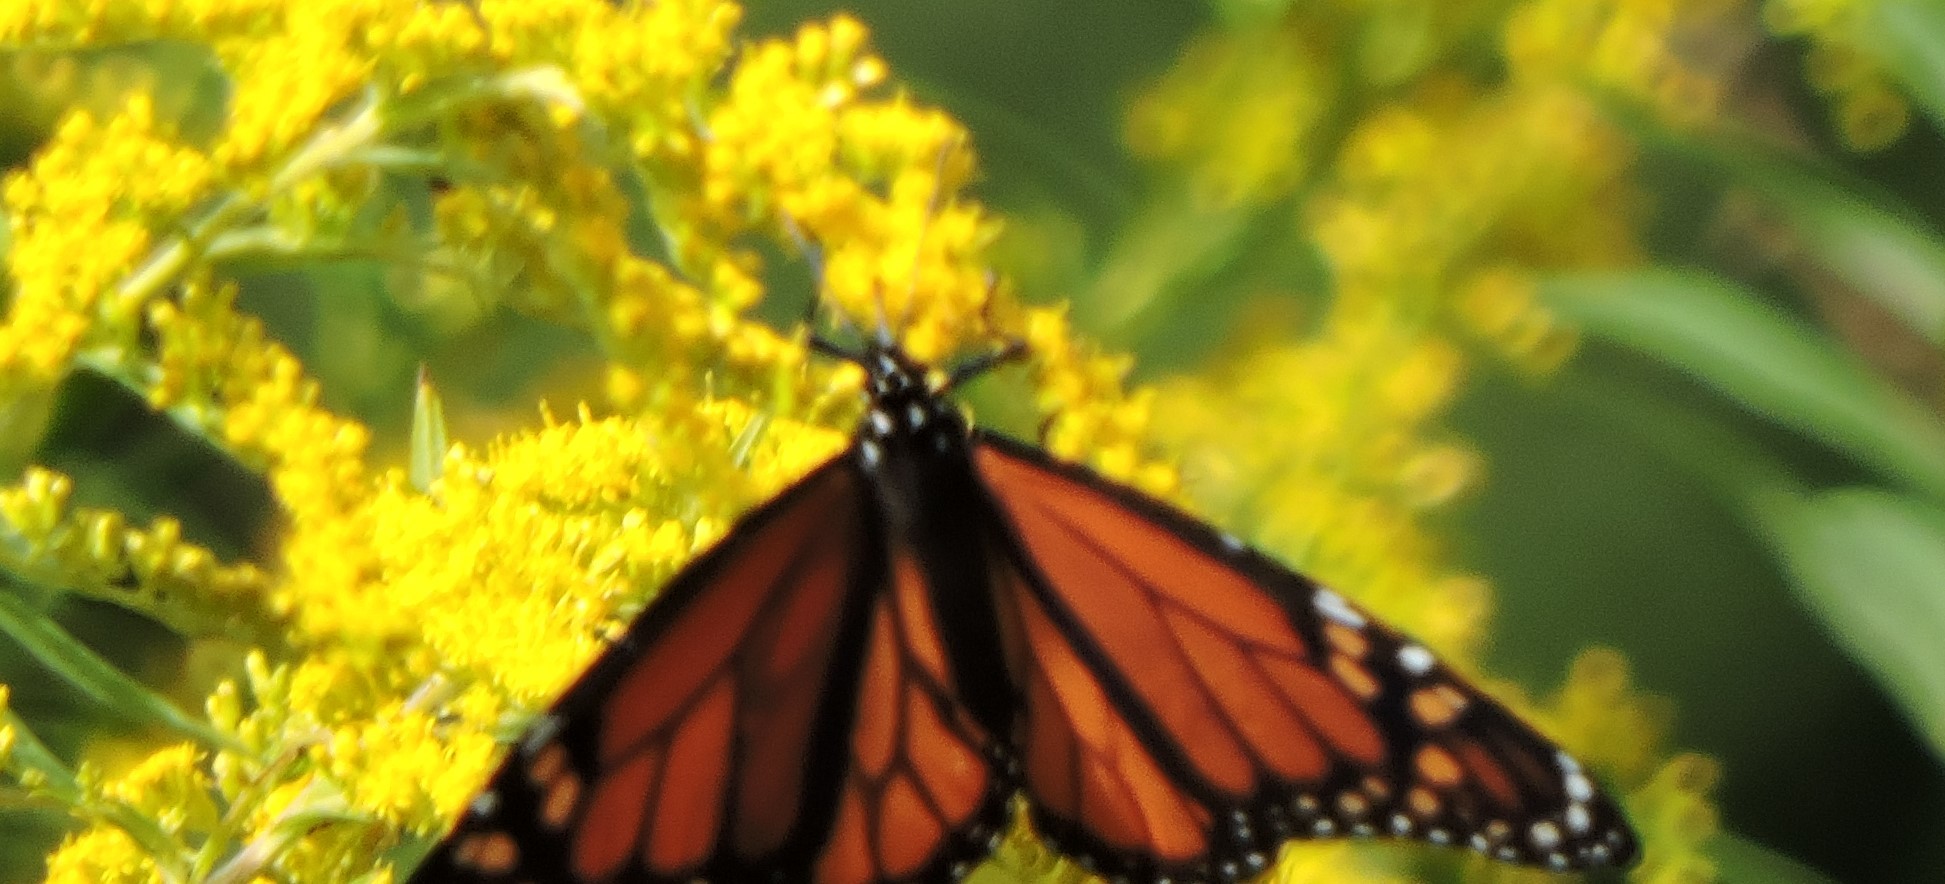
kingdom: Animalia
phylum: Arthropoda
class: Insecta
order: Lepidoptera
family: Nymphalidae
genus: Danaus
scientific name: Danaus plexippus
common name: Monarch
